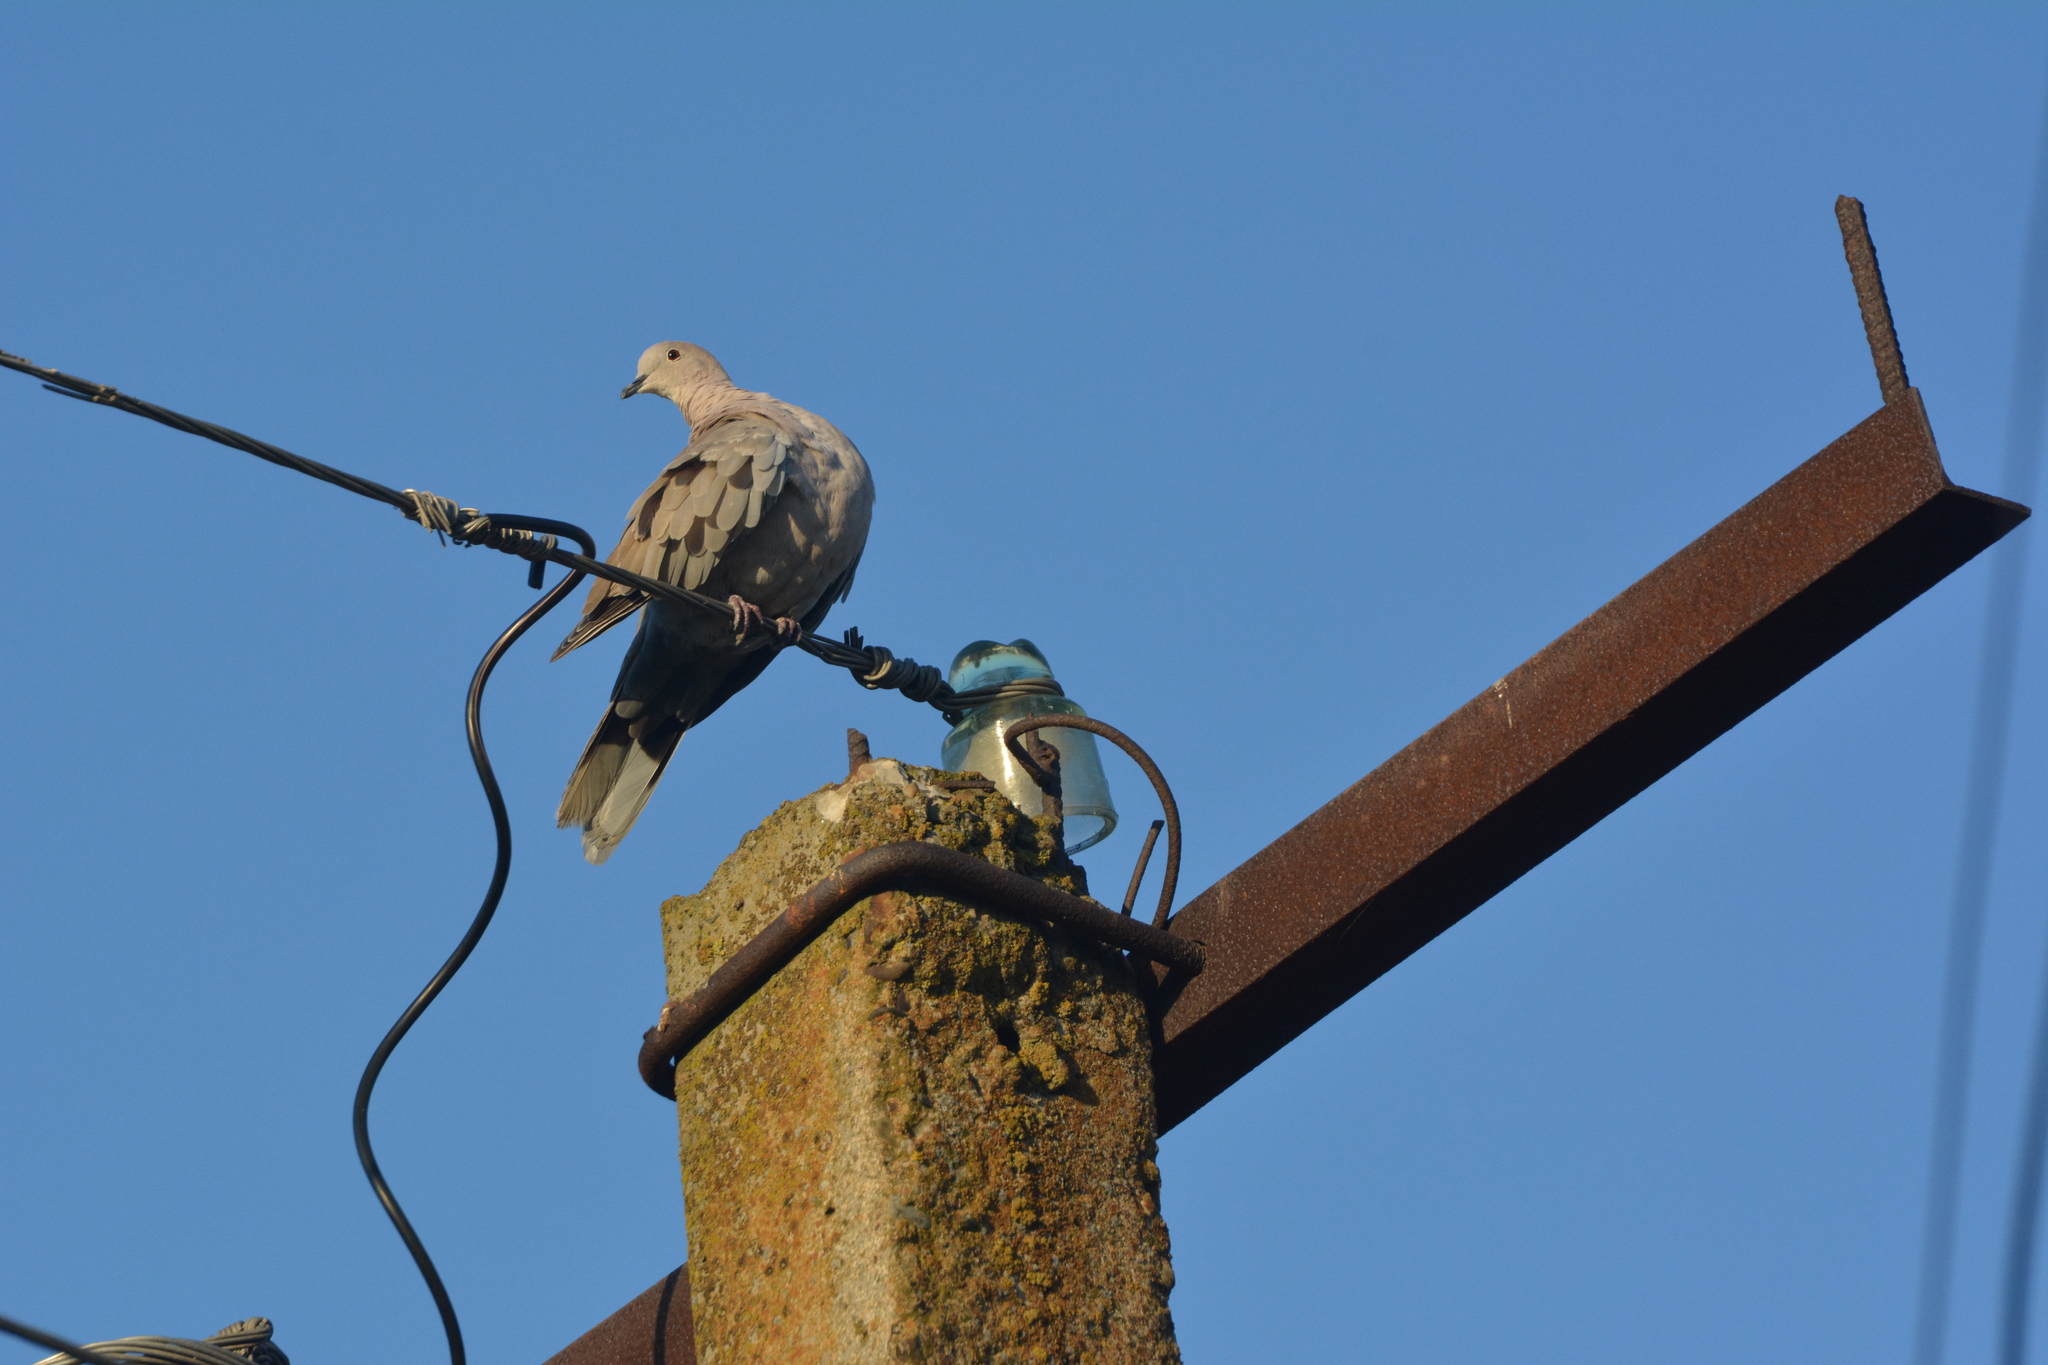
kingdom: Animalia
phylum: Chordata
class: Aves
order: Columbiformes
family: Columbidae
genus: Streptopelia
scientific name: Streptopelia decaocto
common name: Eurasian collared dove
